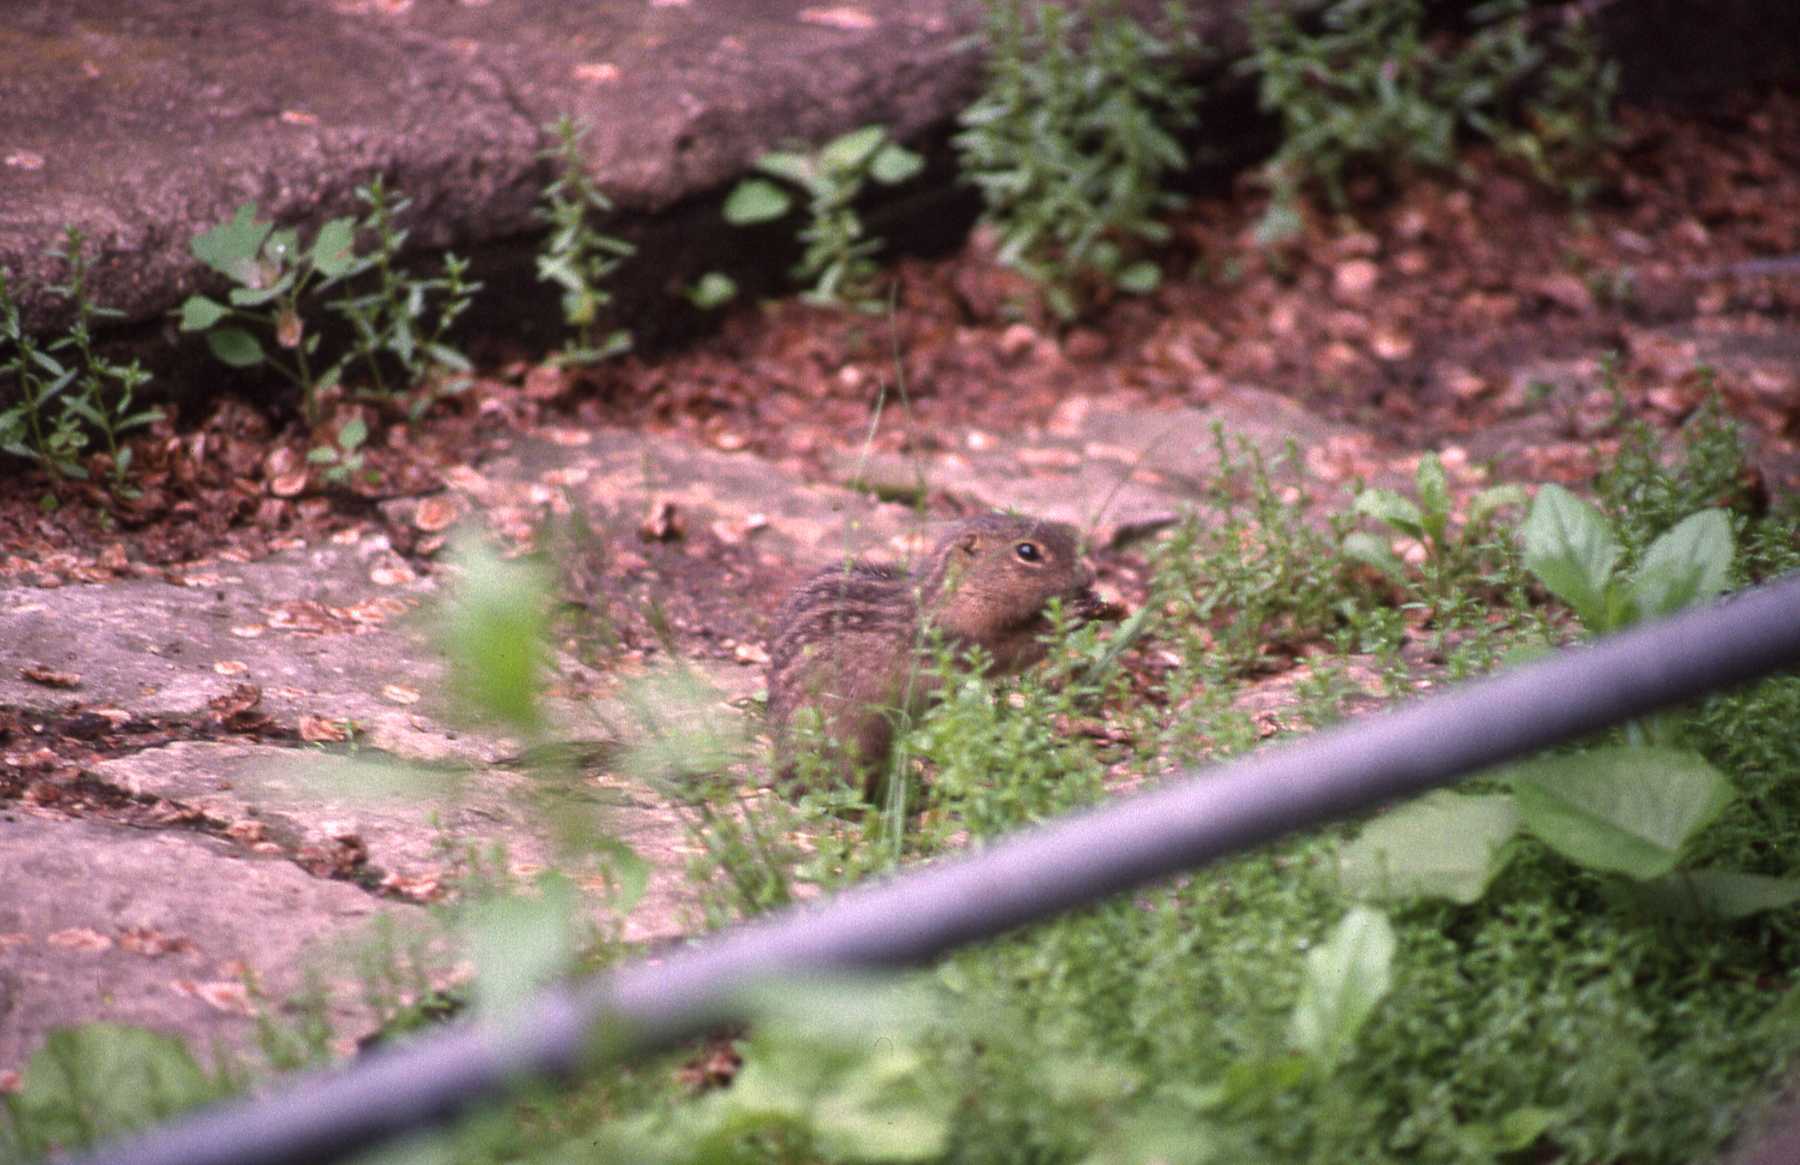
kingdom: Animalia
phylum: Chordata
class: Mammalia
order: Rodentia
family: Sciuridae
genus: Ictidomys
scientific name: Ictidomys tridecemlineatus
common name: Thirteen-lined ground squirrel
